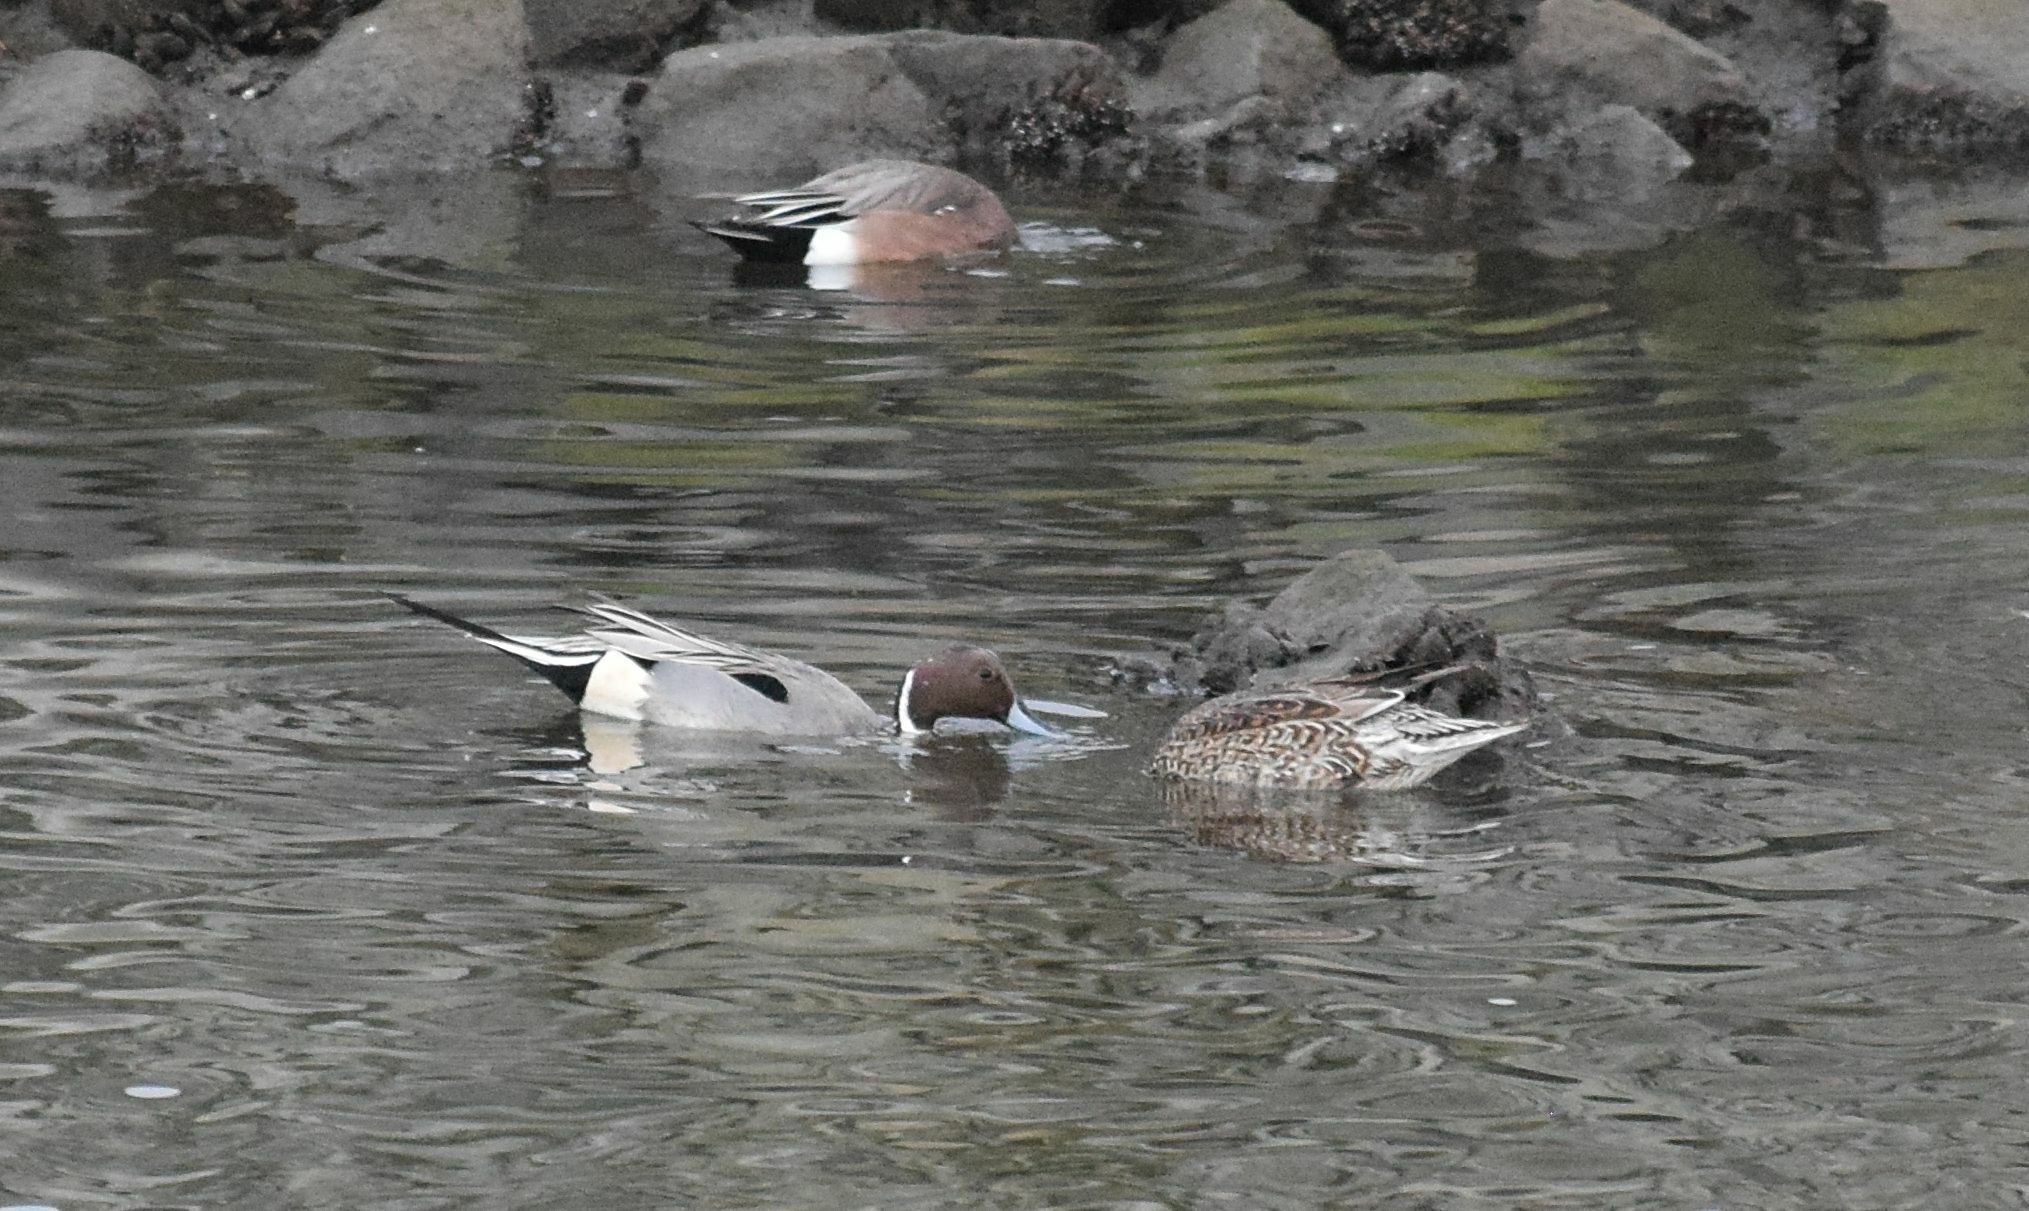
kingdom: Animalia
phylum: Chordata
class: Aves
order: Anseriformes
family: Anatidae
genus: Anas
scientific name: Anas acuta
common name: Northern pintail
